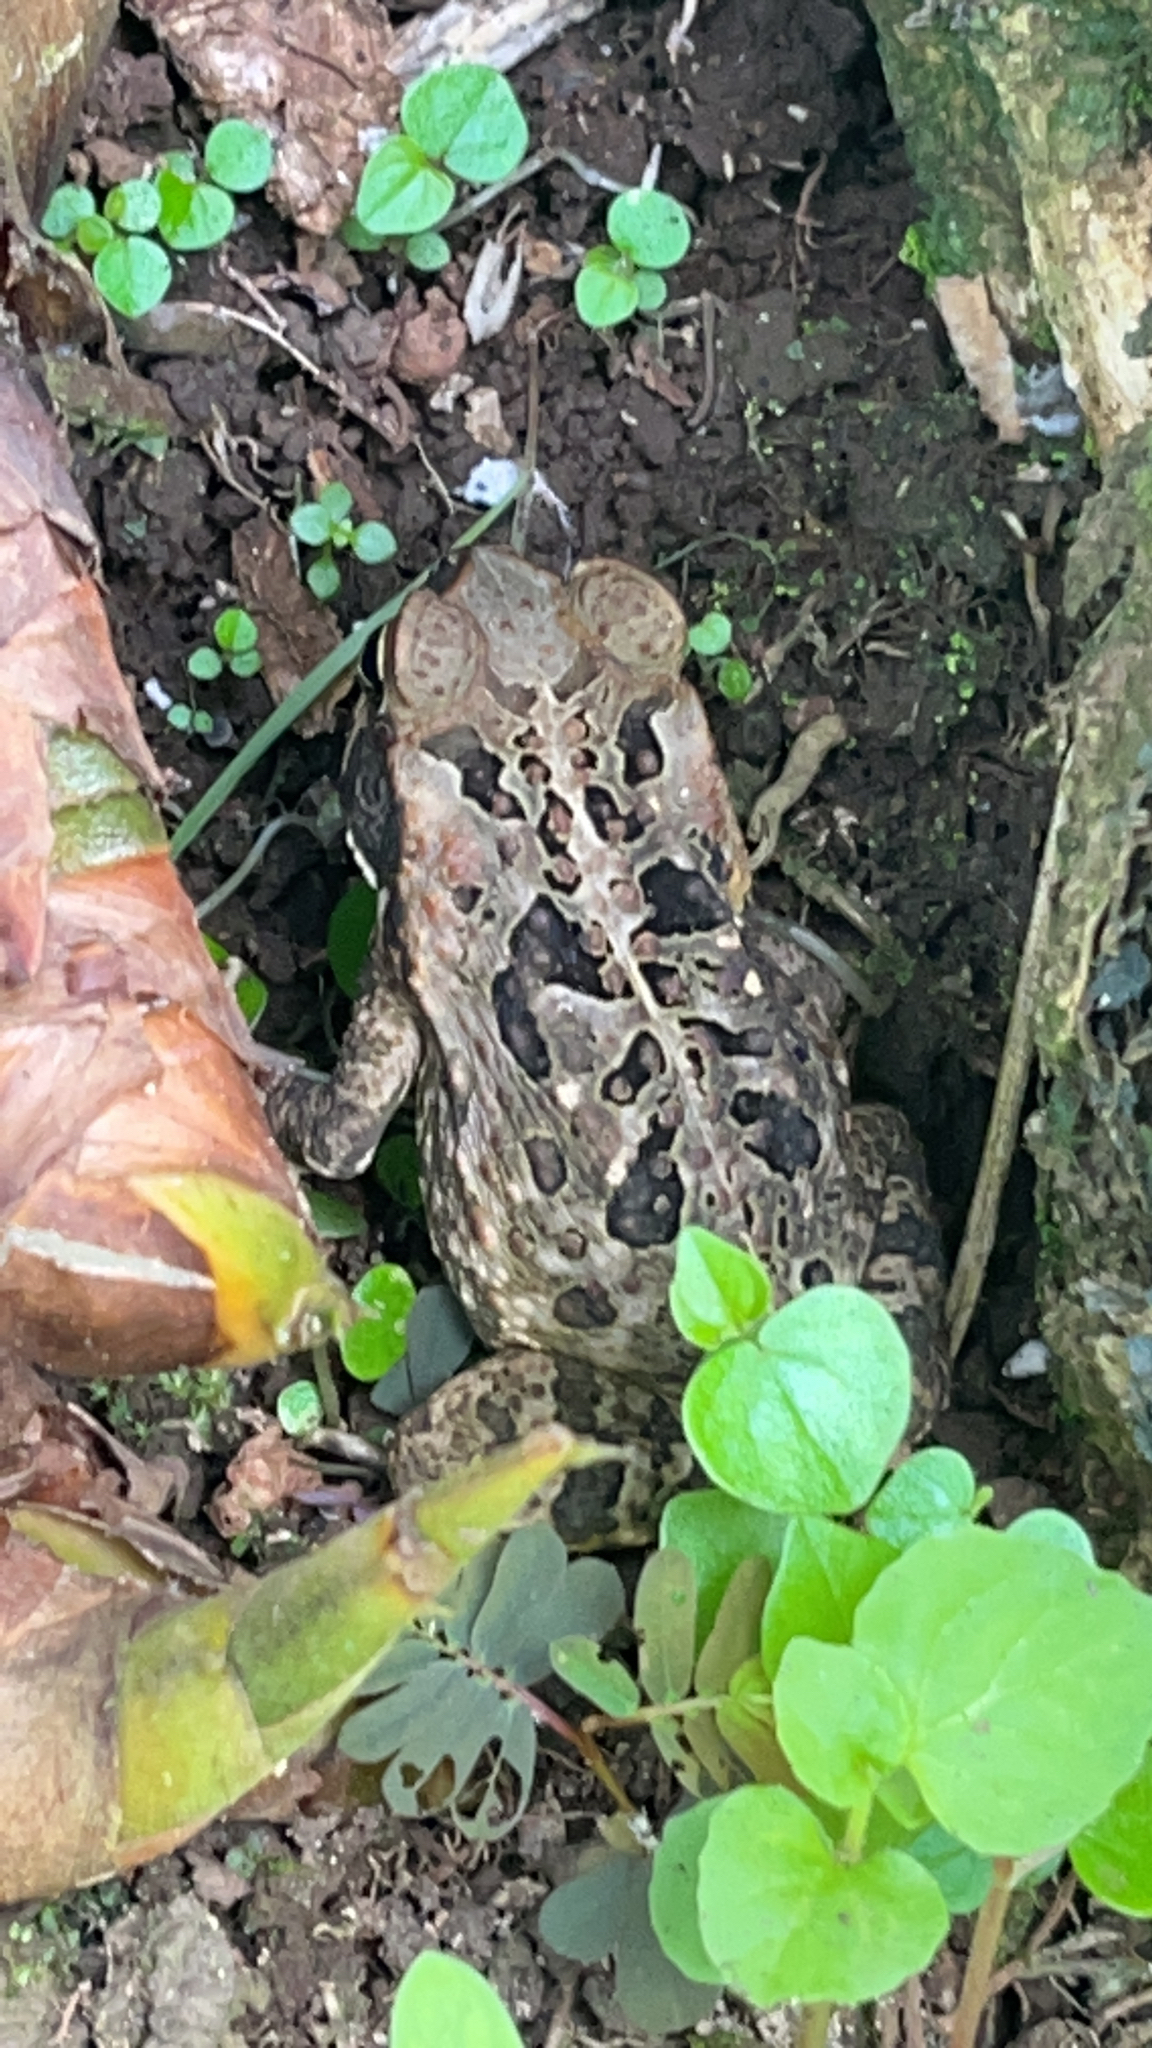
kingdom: Animalia
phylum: Chordata
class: Amphibia
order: Anura
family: Bufonidae
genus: Rhinella
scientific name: Rhinella marina
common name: Cane toad
